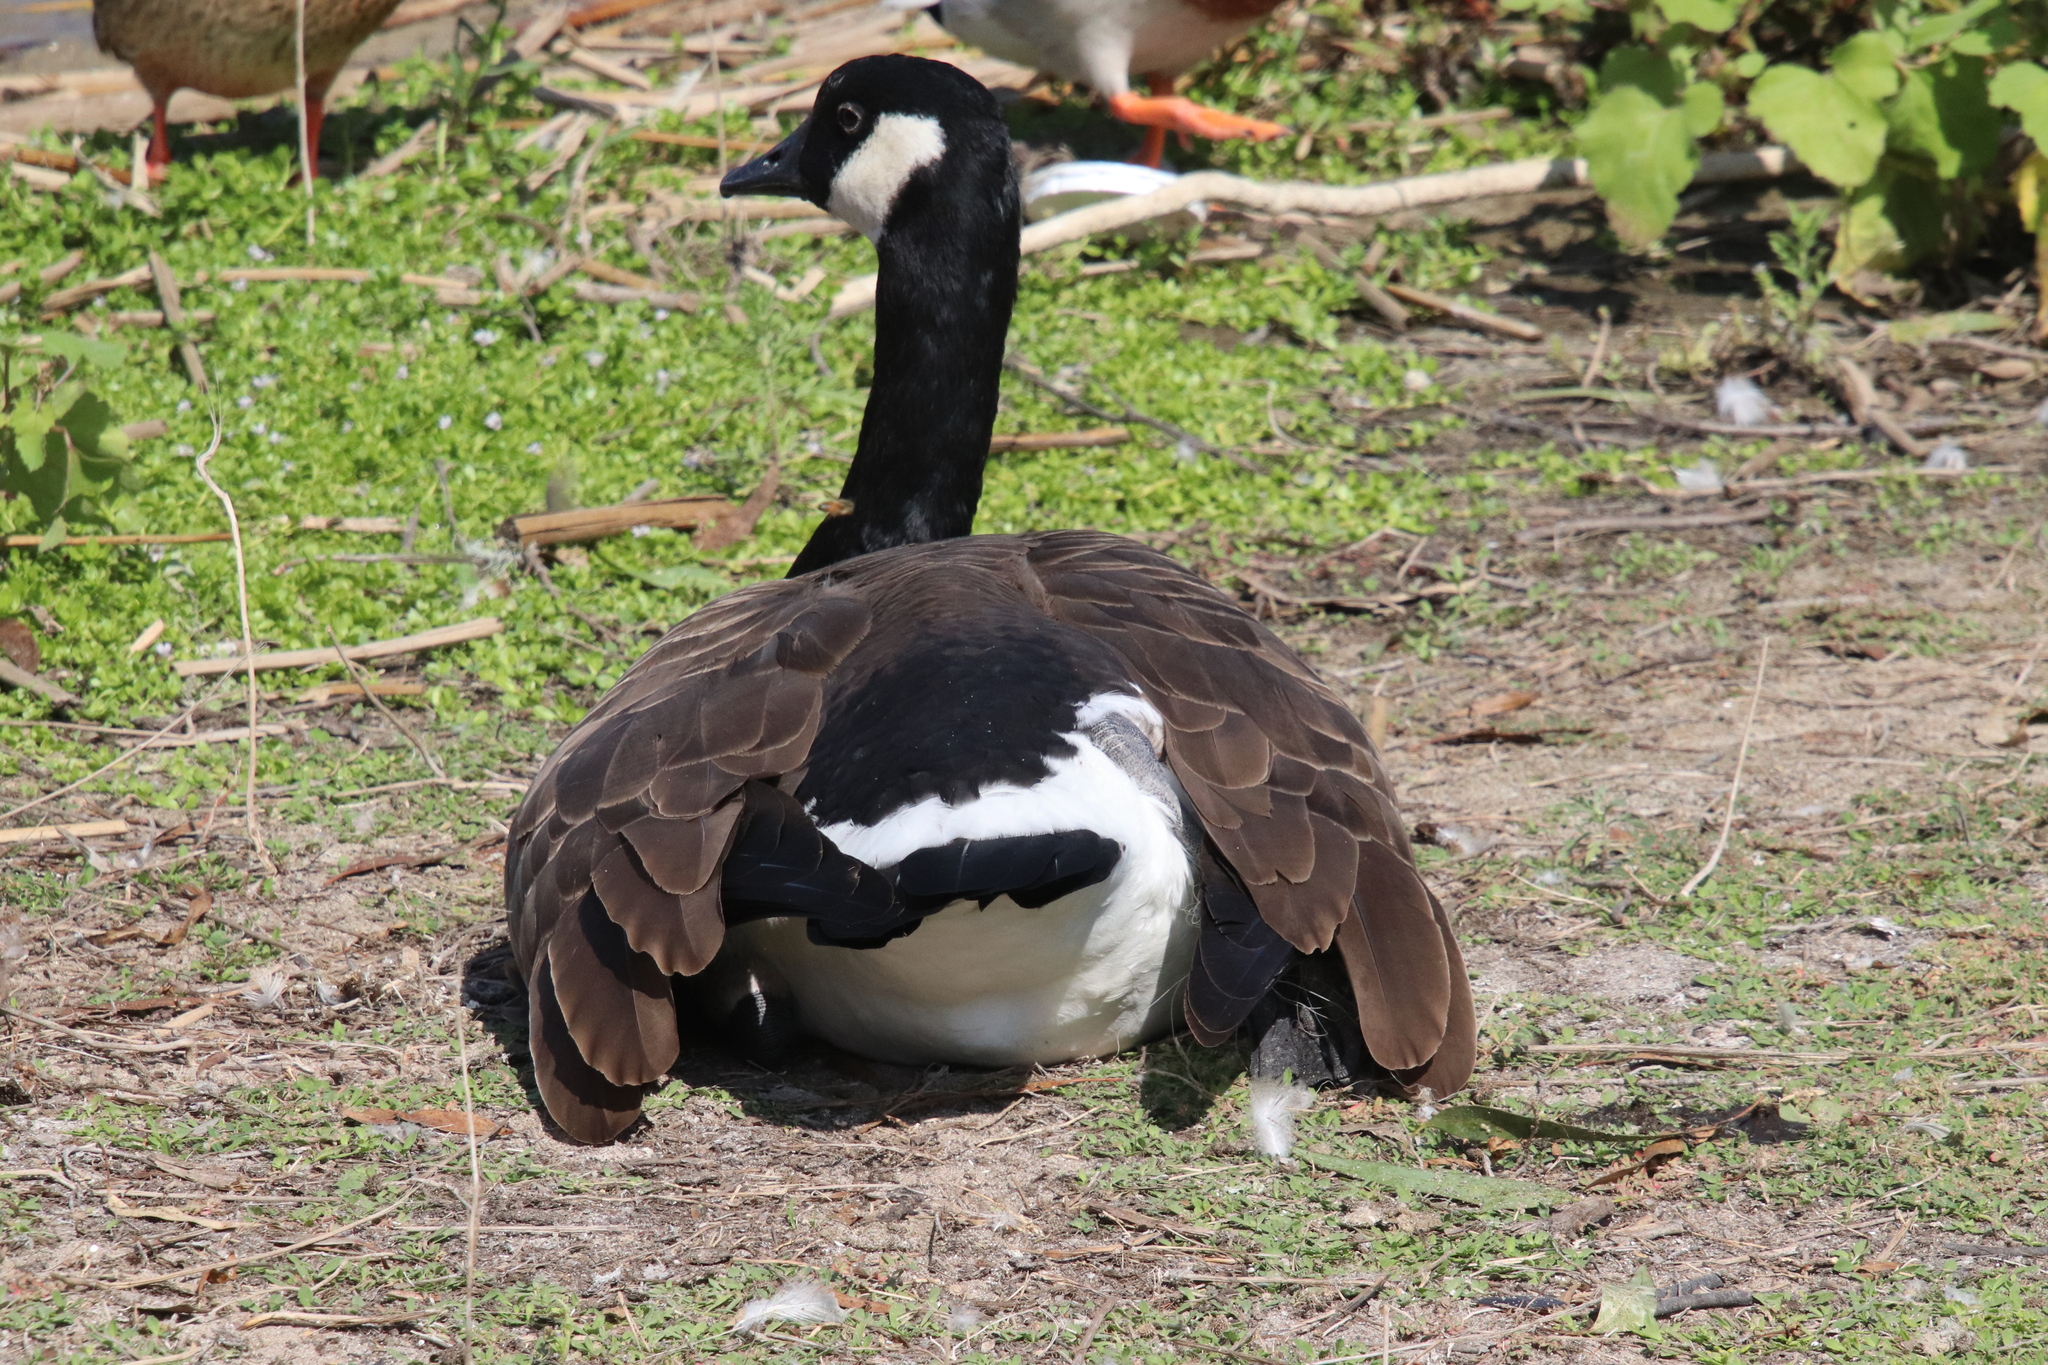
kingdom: Animalia
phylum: Chordata
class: Aves
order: Anseriformes
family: Anatidae
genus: Branta
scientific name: Branta canadensis
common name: Canada goose
